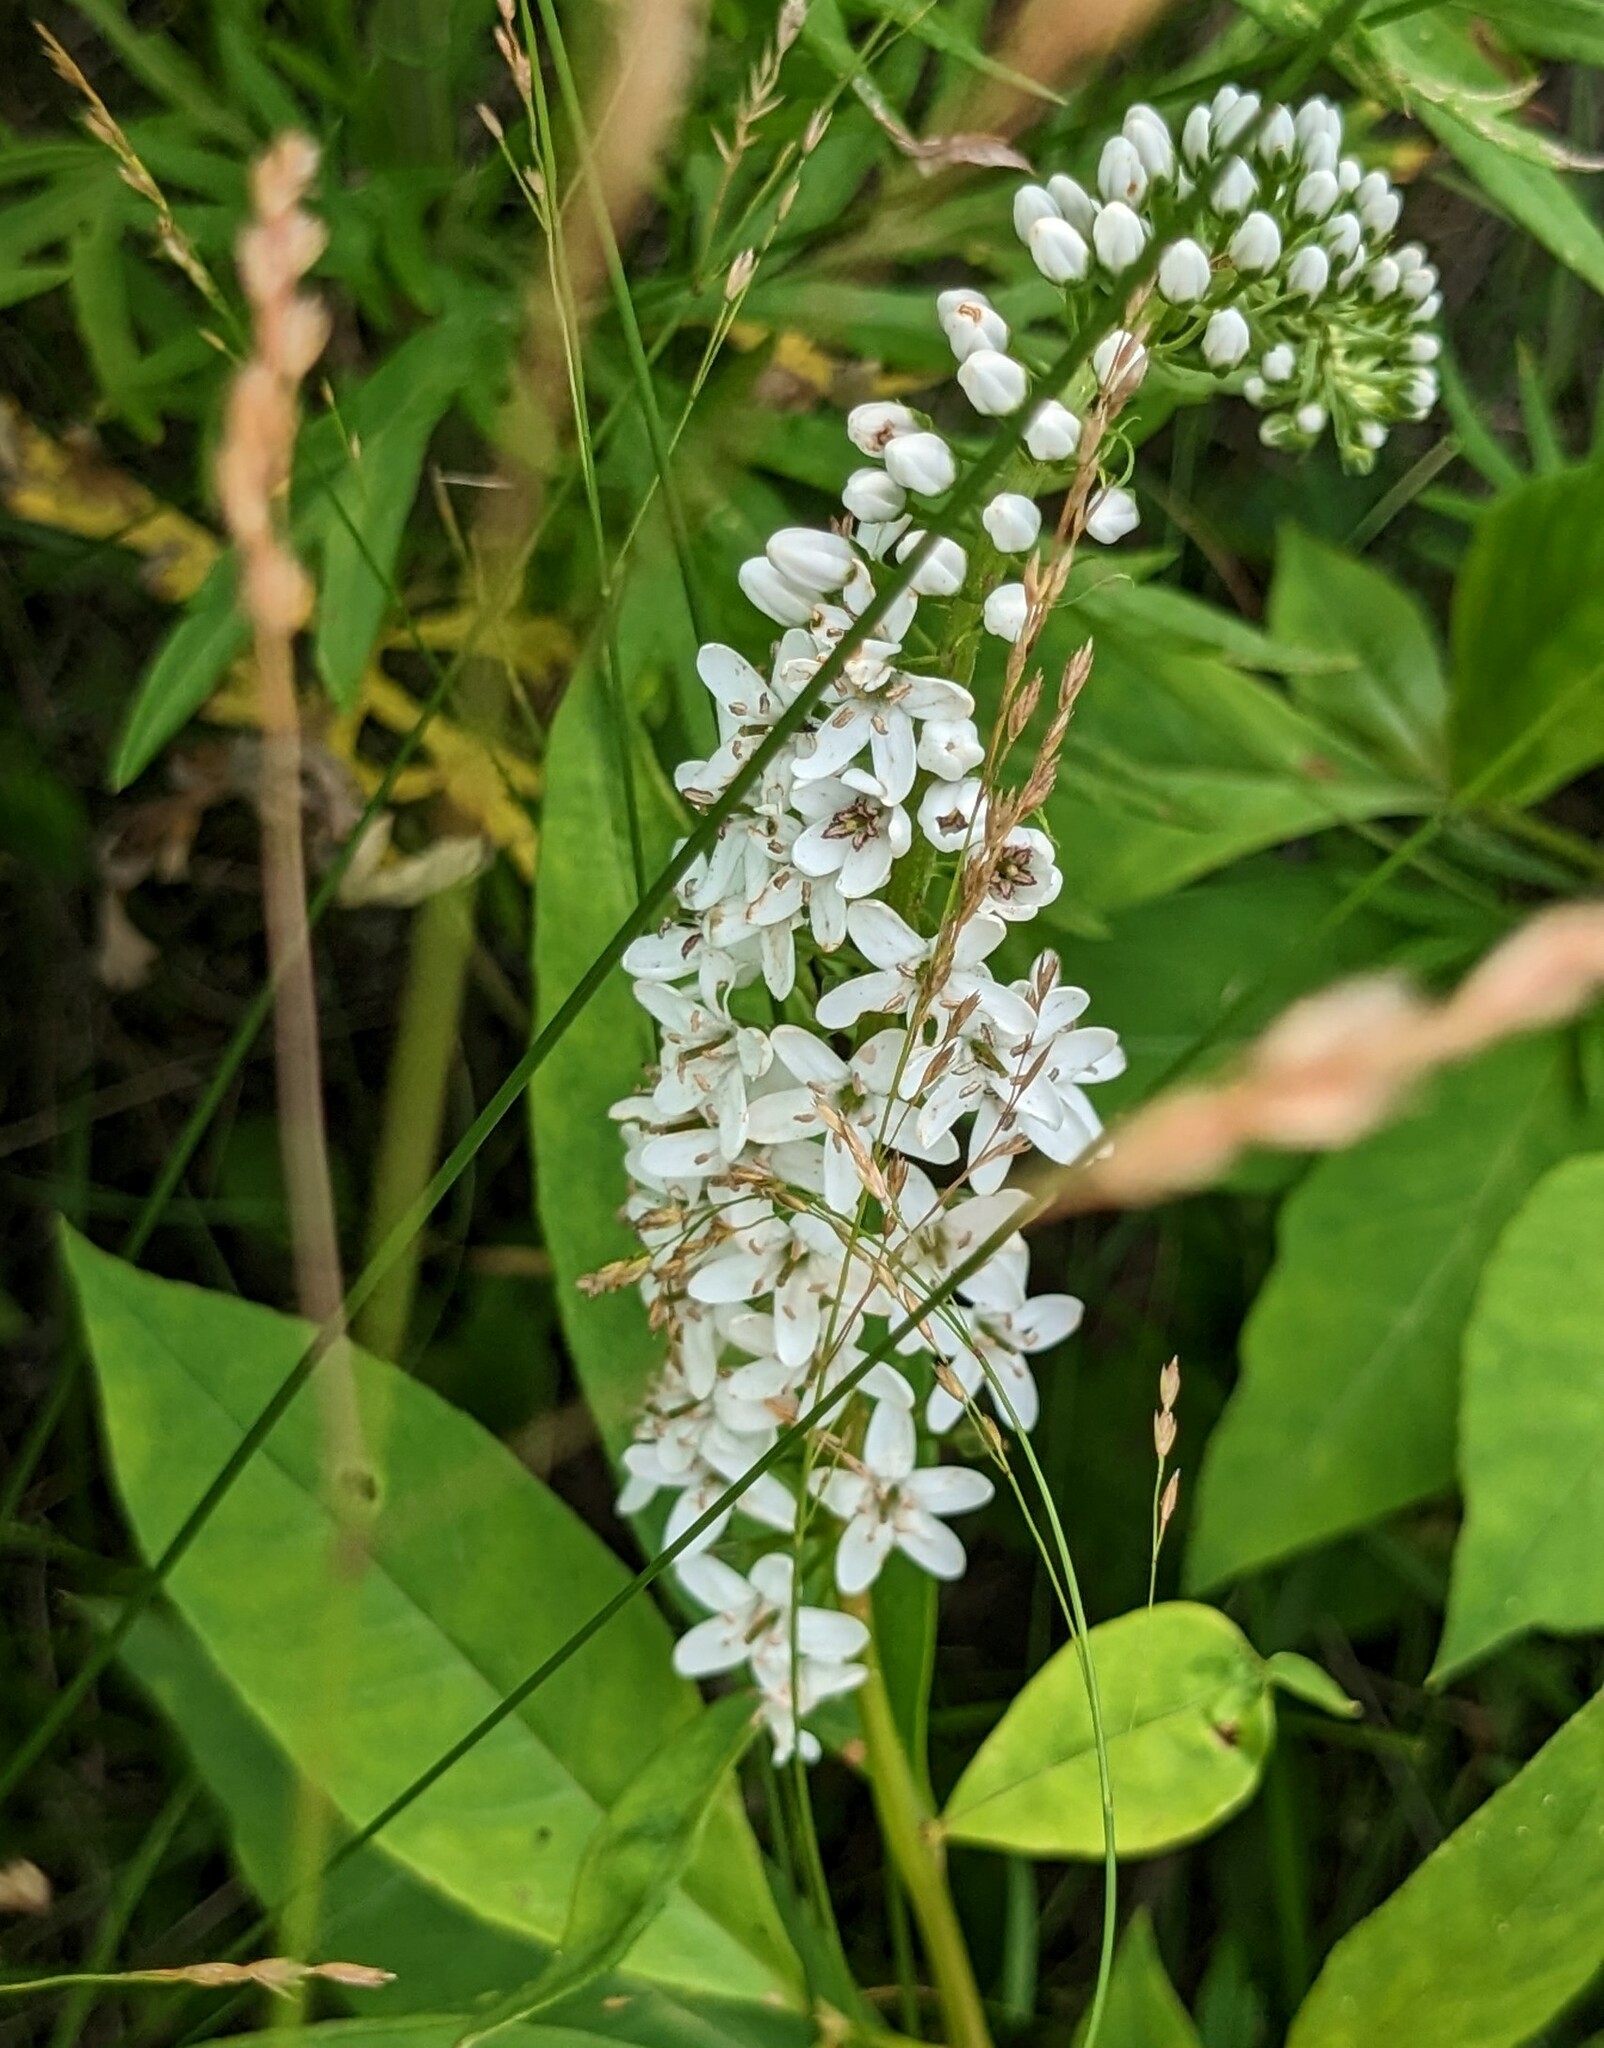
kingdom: Plantae
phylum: Tracheophyta
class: Magnoliopsida
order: Ericales
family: Primulaceae
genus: Lysimachia
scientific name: Lysimachia clethroides
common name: Gooseneck loosestrife
